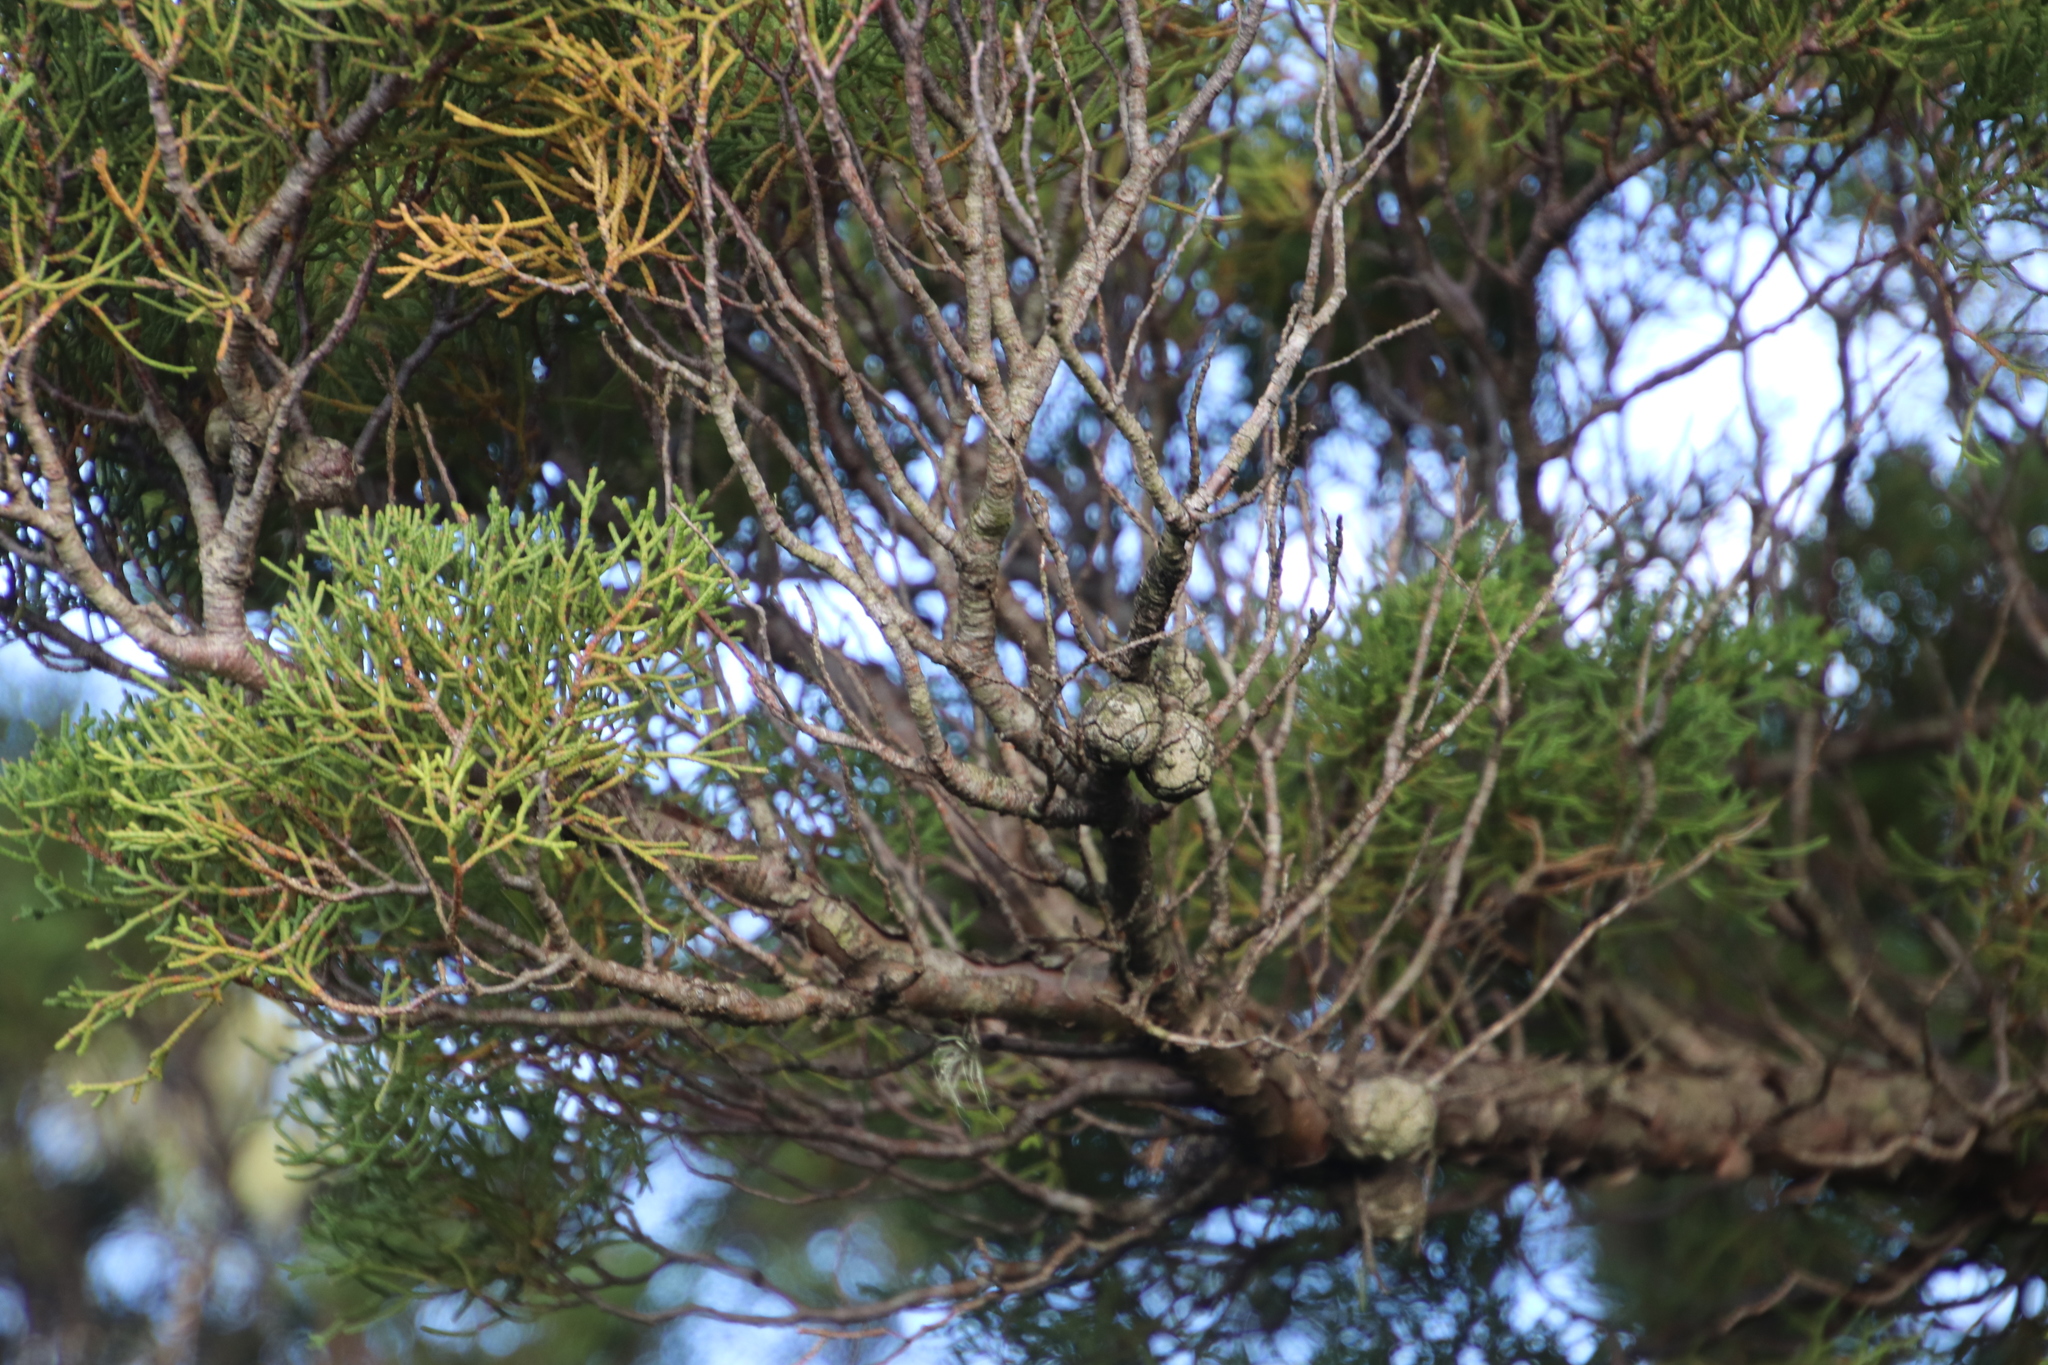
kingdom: Plantae
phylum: Tracheophyta
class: Pinopsida
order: Pinales
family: Cupressaceae
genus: Cupressus
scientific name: Cupressus macrocarpa
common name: Monterey cypress
